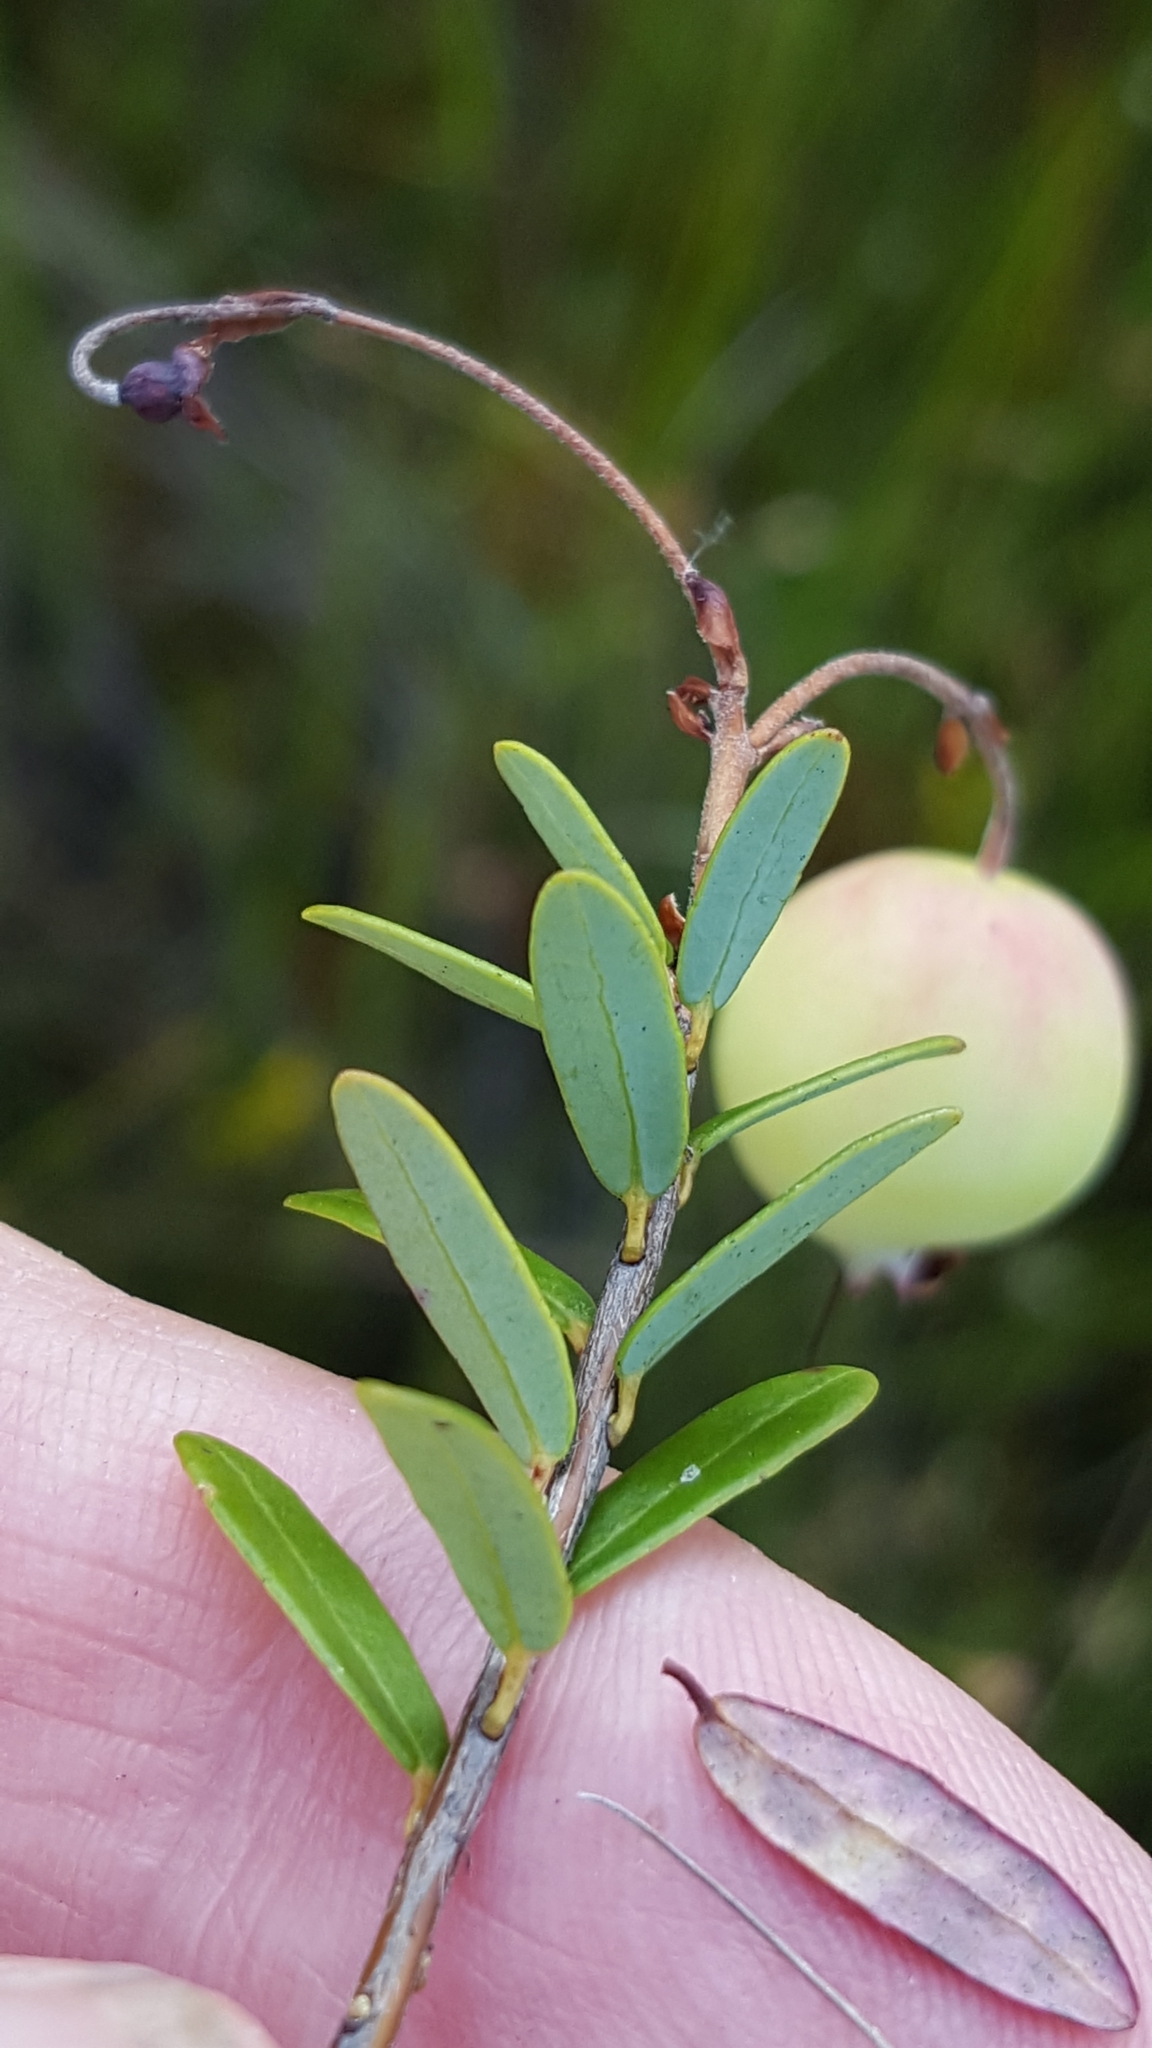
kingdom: Plantae
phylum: Tracheophyta
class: Magnoliopsida
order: Ericales
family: Ericaceae
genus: Vaccinium
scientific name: Vaccinium macrocarpon
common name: American cranberry
